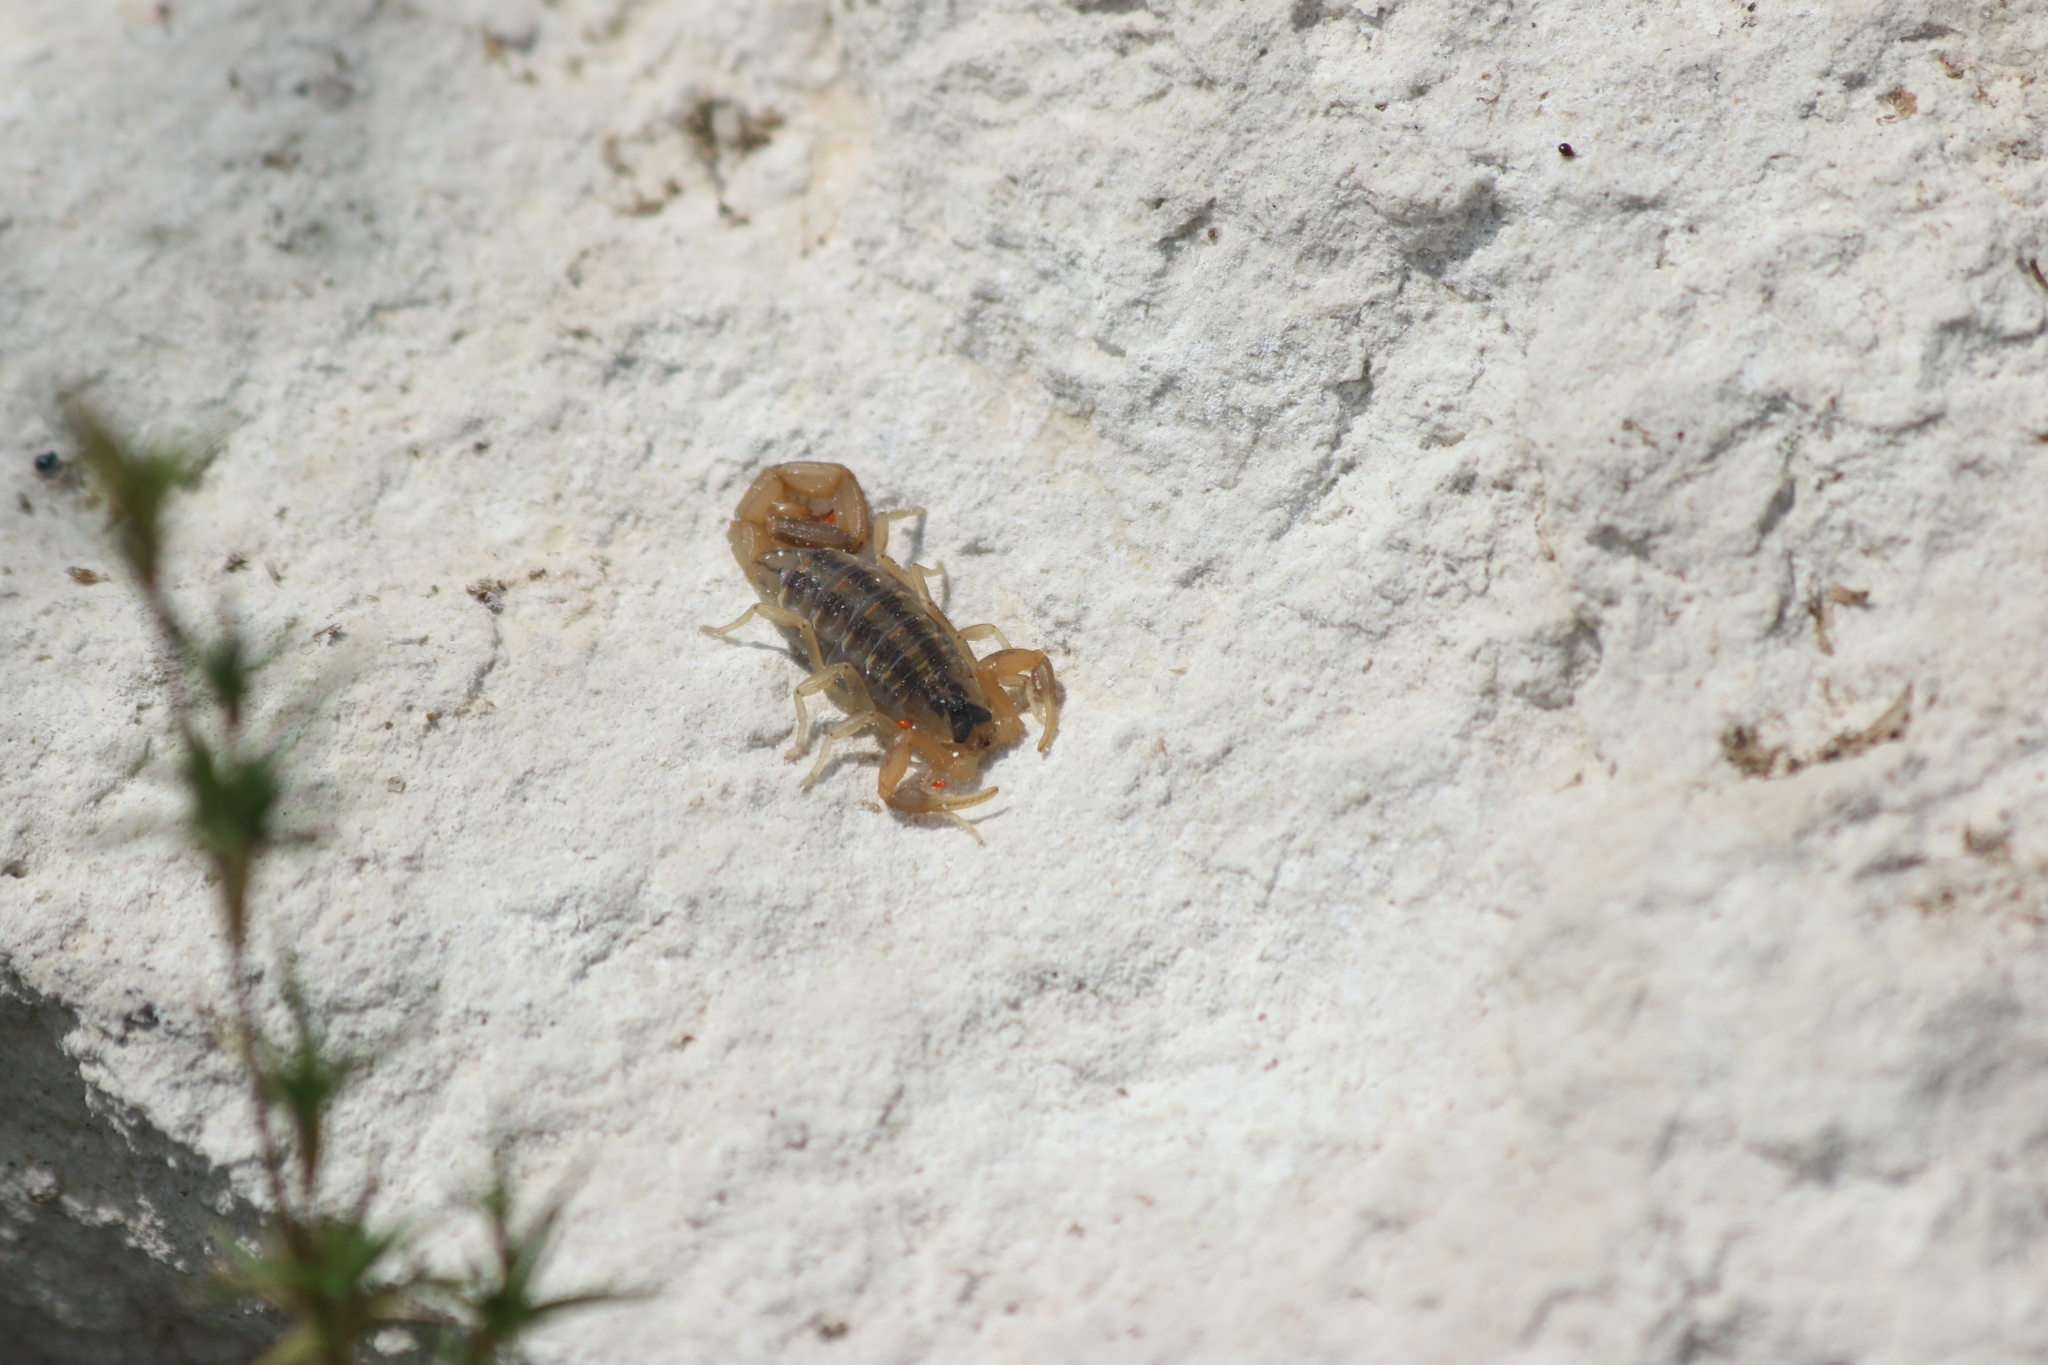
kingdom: Animalia
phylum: Arthropoda
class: Arachnida
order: Scorpiones
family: Buthidae
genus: Centruroides
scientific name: Centruroides vittatus
